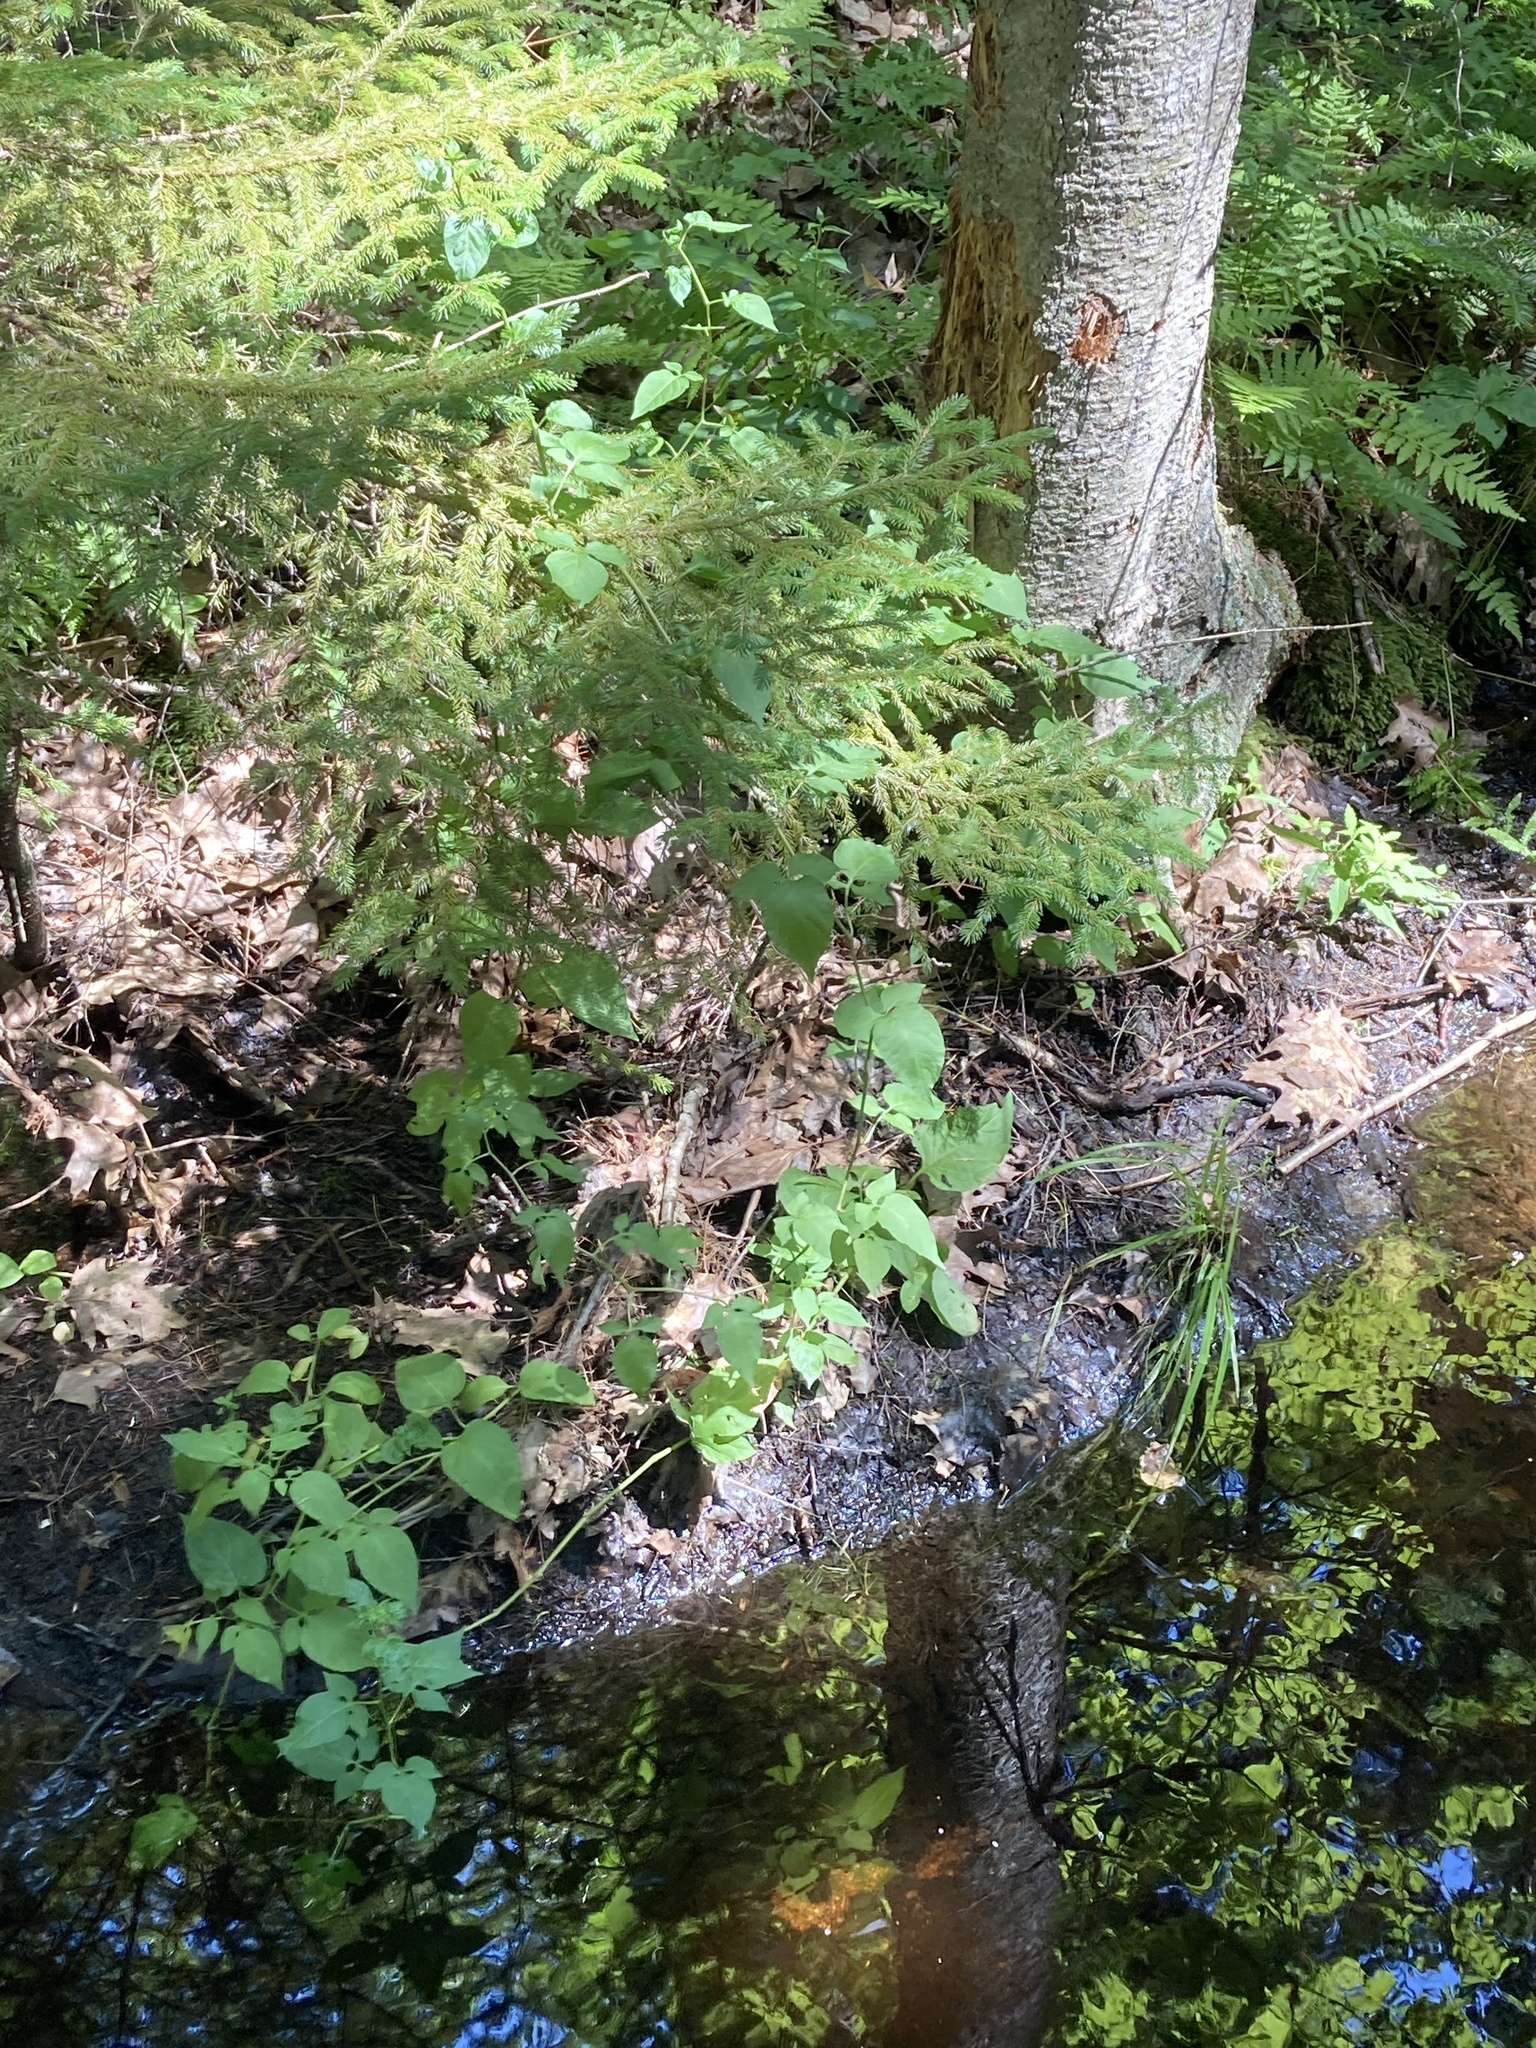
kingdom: Plantae
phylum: Tracheophyta
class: Magnoliopsida
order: Solanales
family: Solanaceae
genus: Solanum
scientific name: Solanum dulcamara
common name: Climbing nightshade
